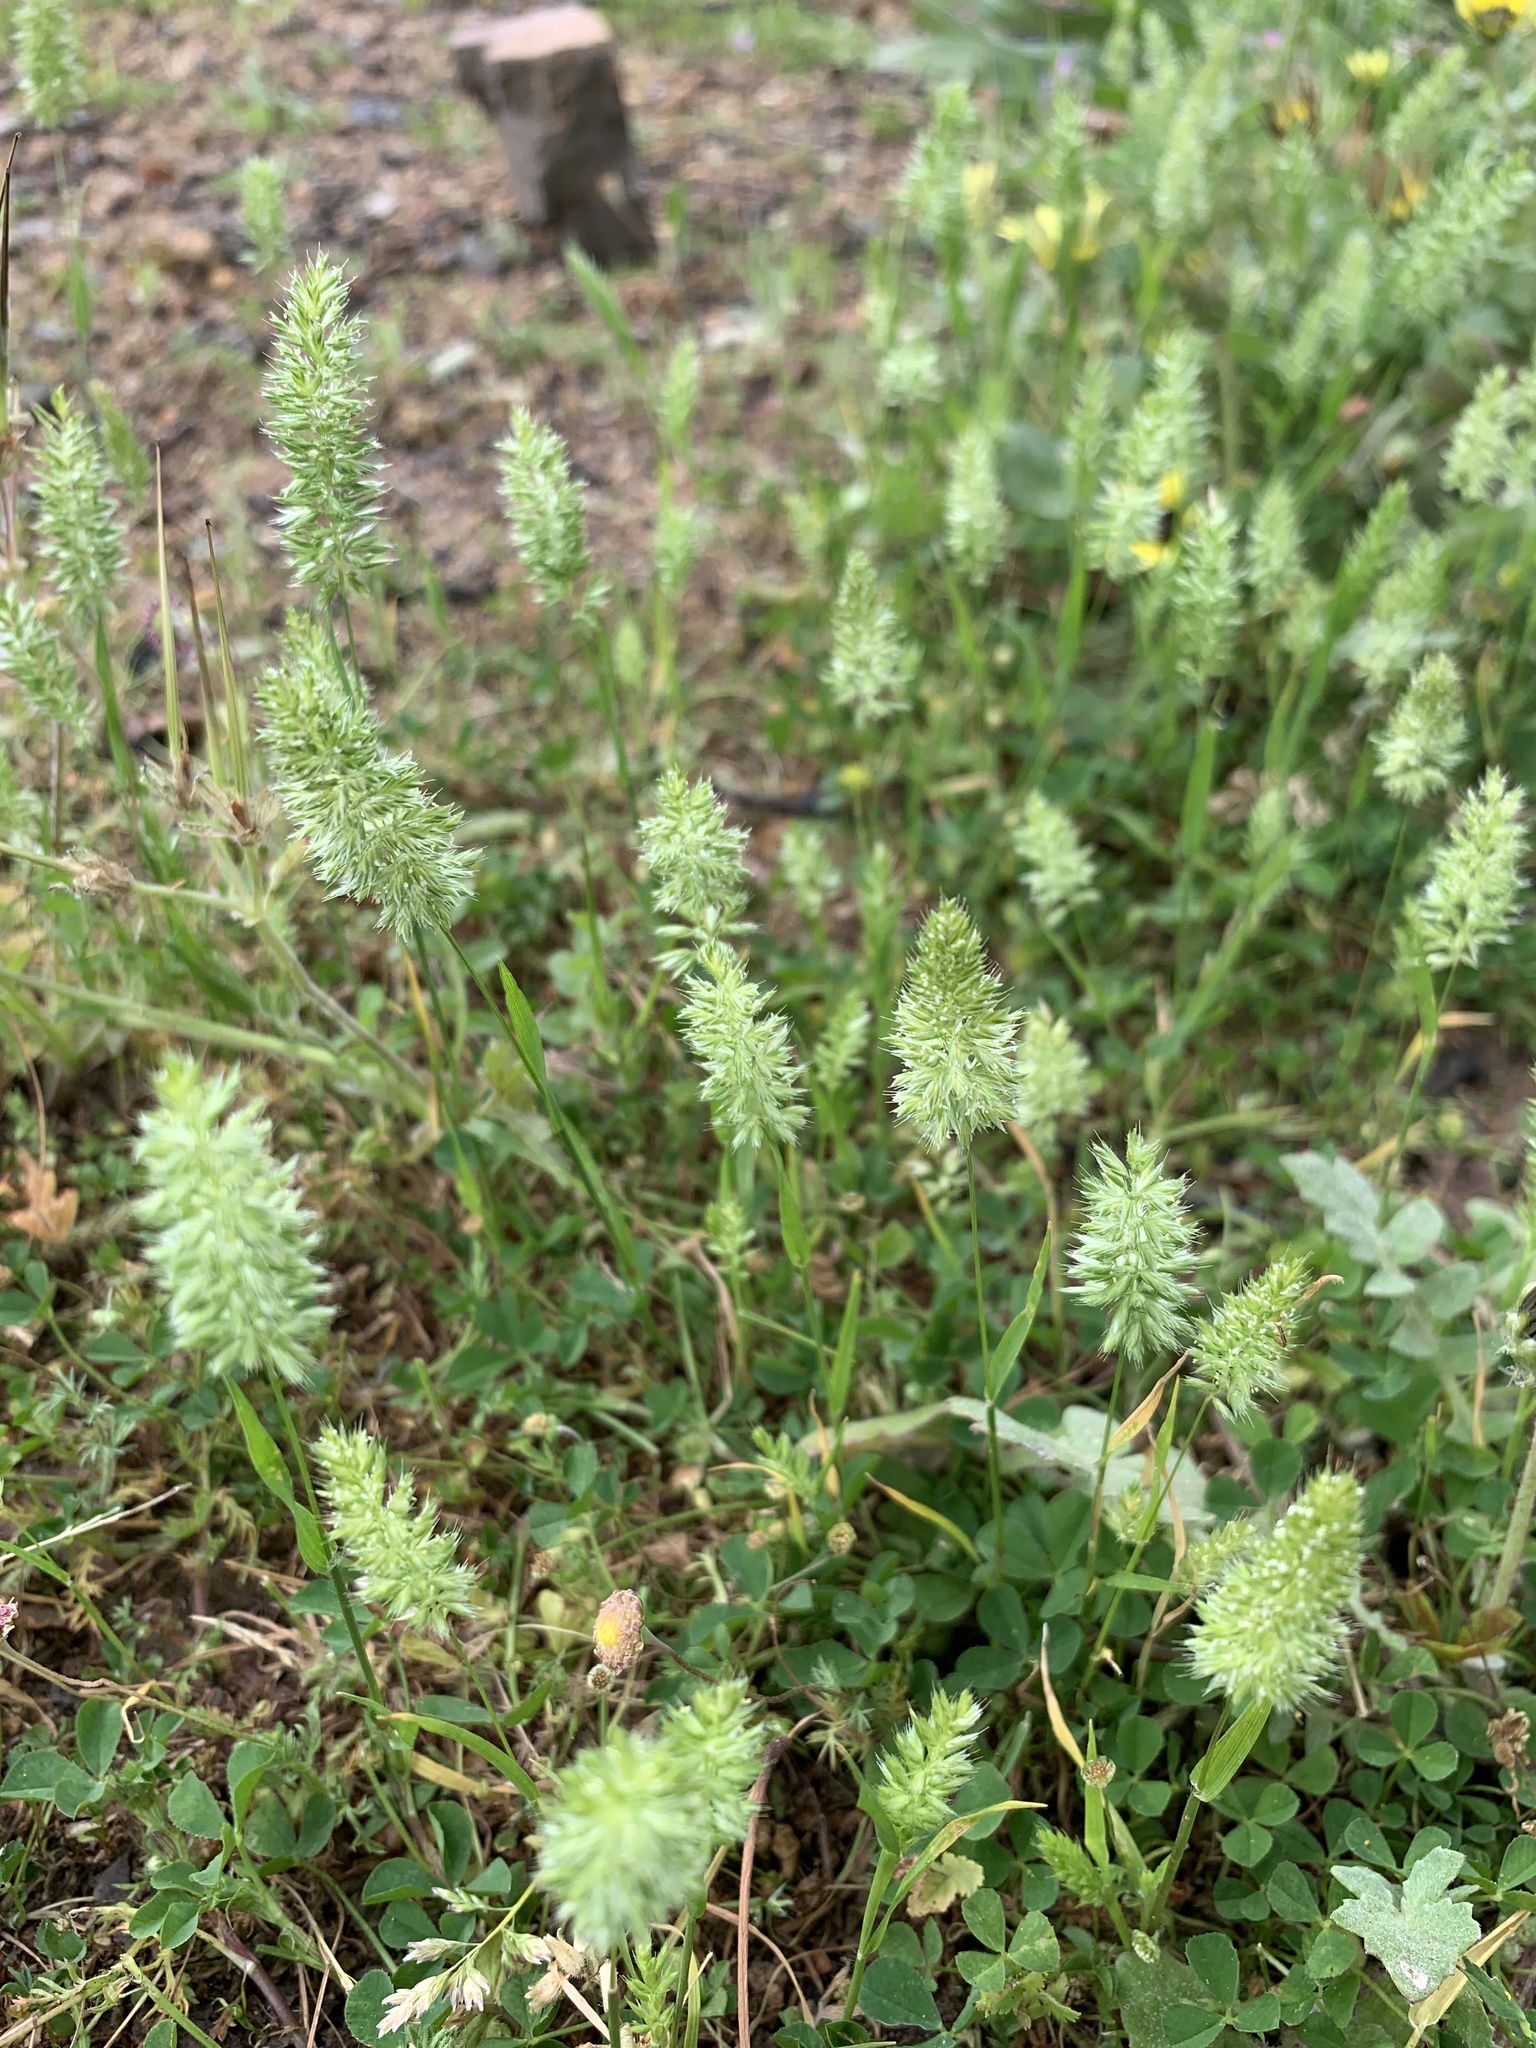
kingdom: Plantae
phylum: Tracheophyta
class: Liliopsida
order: Poales
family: Poaceae
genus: Rostraria
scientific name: Rostraria cristata
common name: Mediterranean hair-grass
